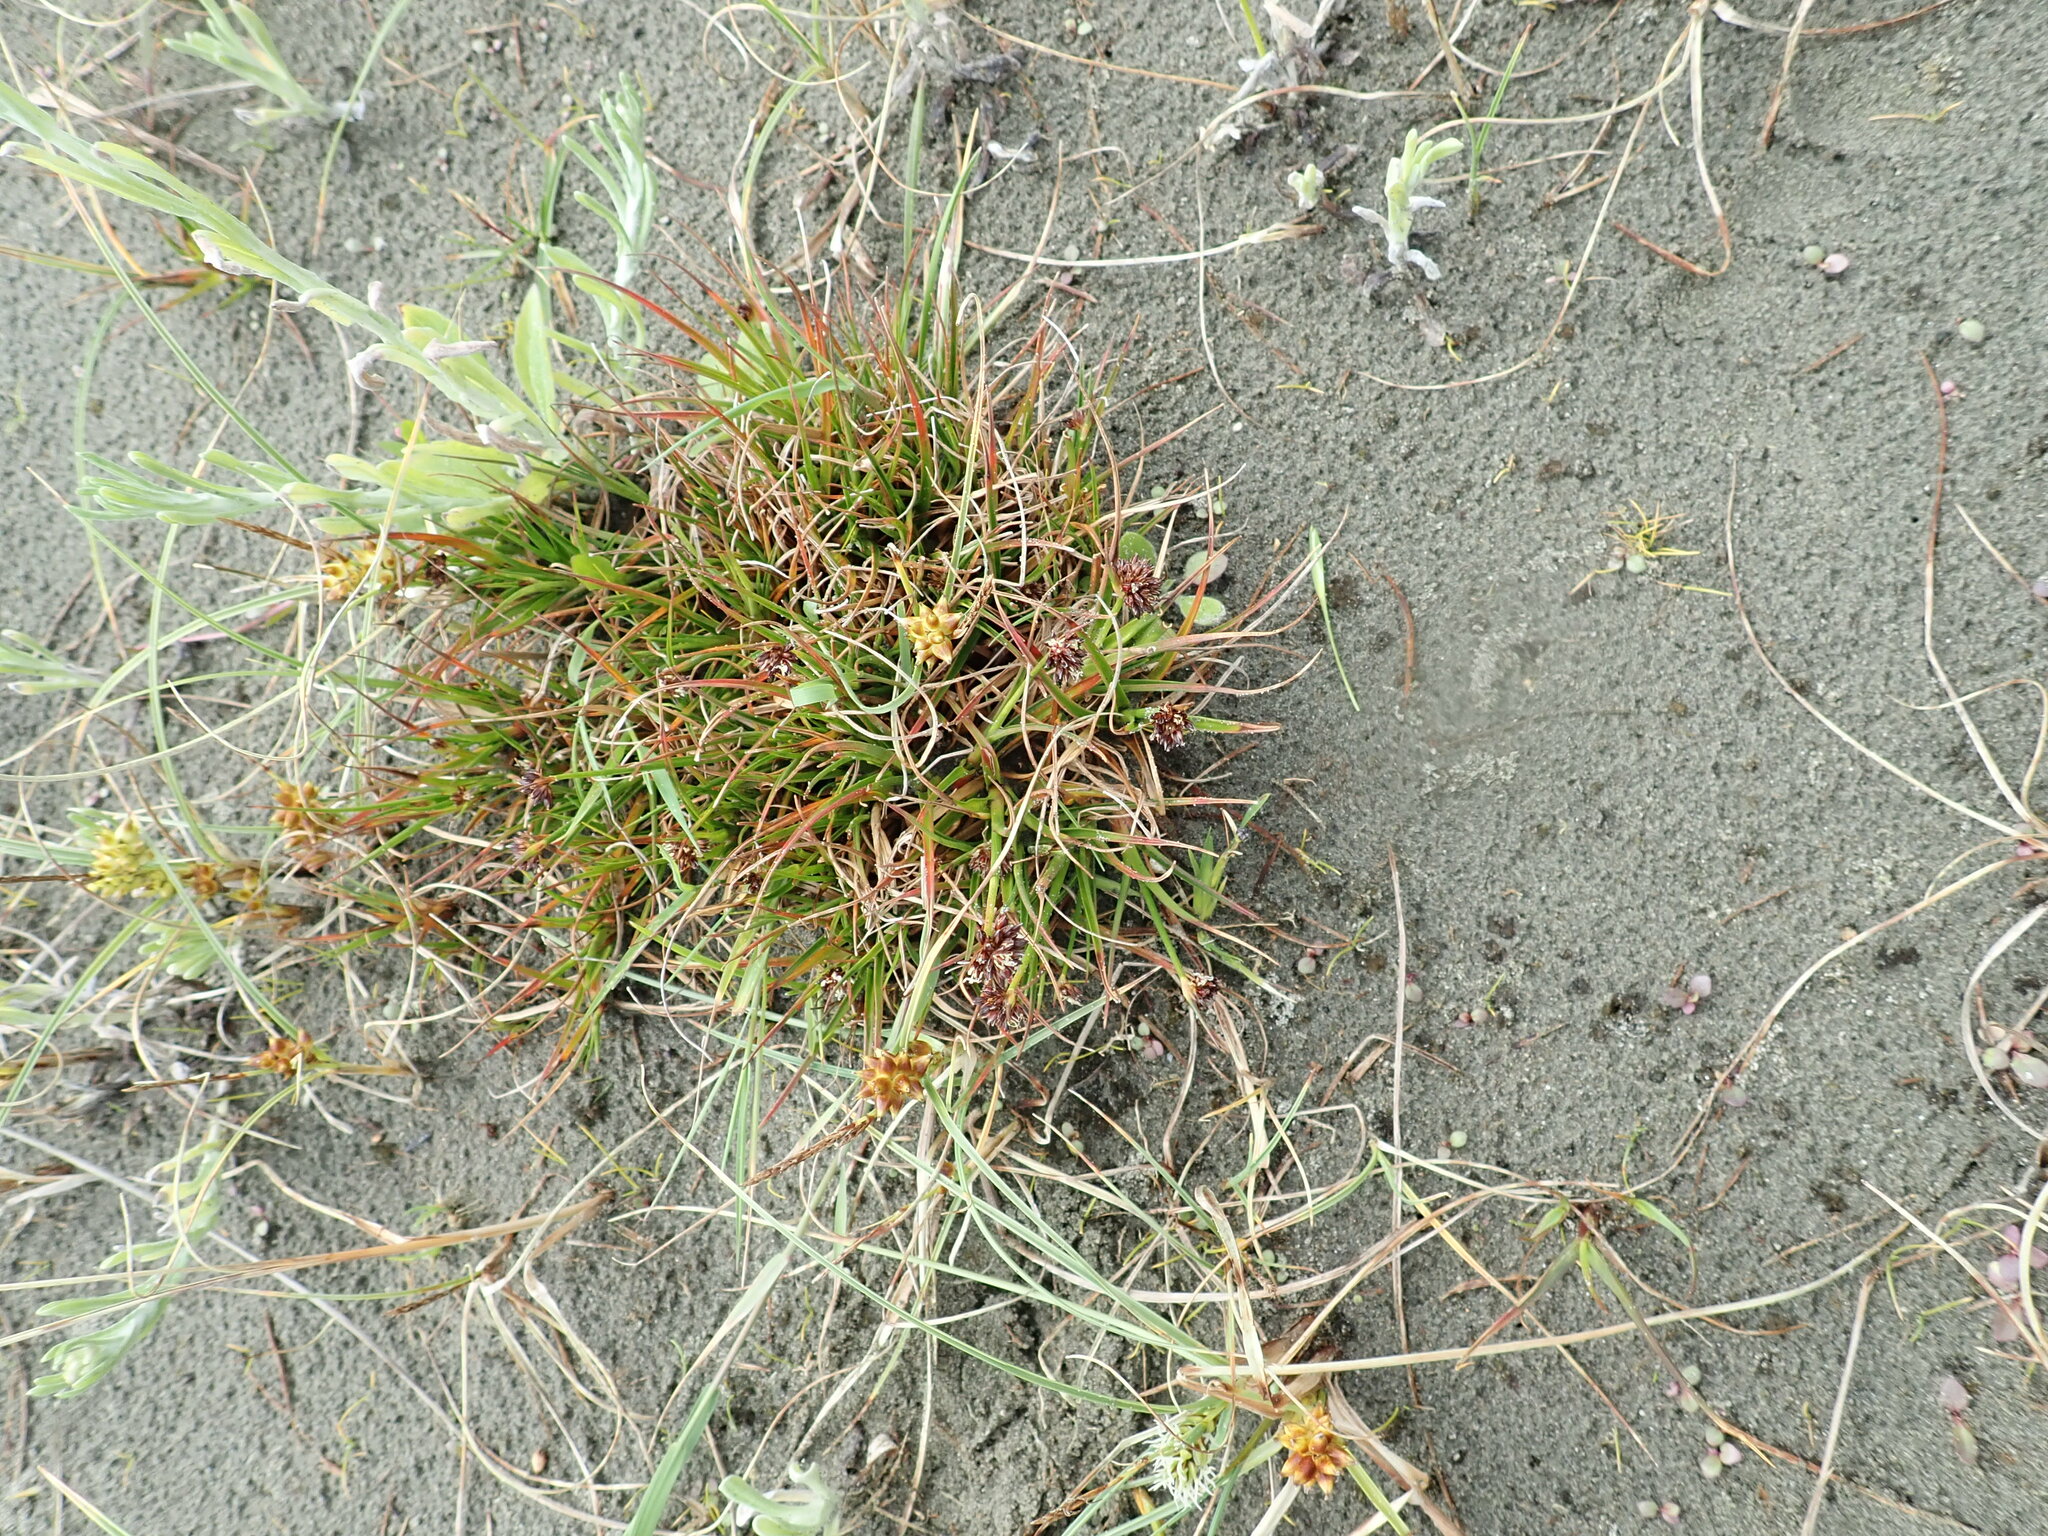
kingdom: Plantae
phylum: Tracheophyta
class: Liliopsida
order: Poales
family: Juncaceae
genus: Juncus
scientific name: Juncus caespiticius
